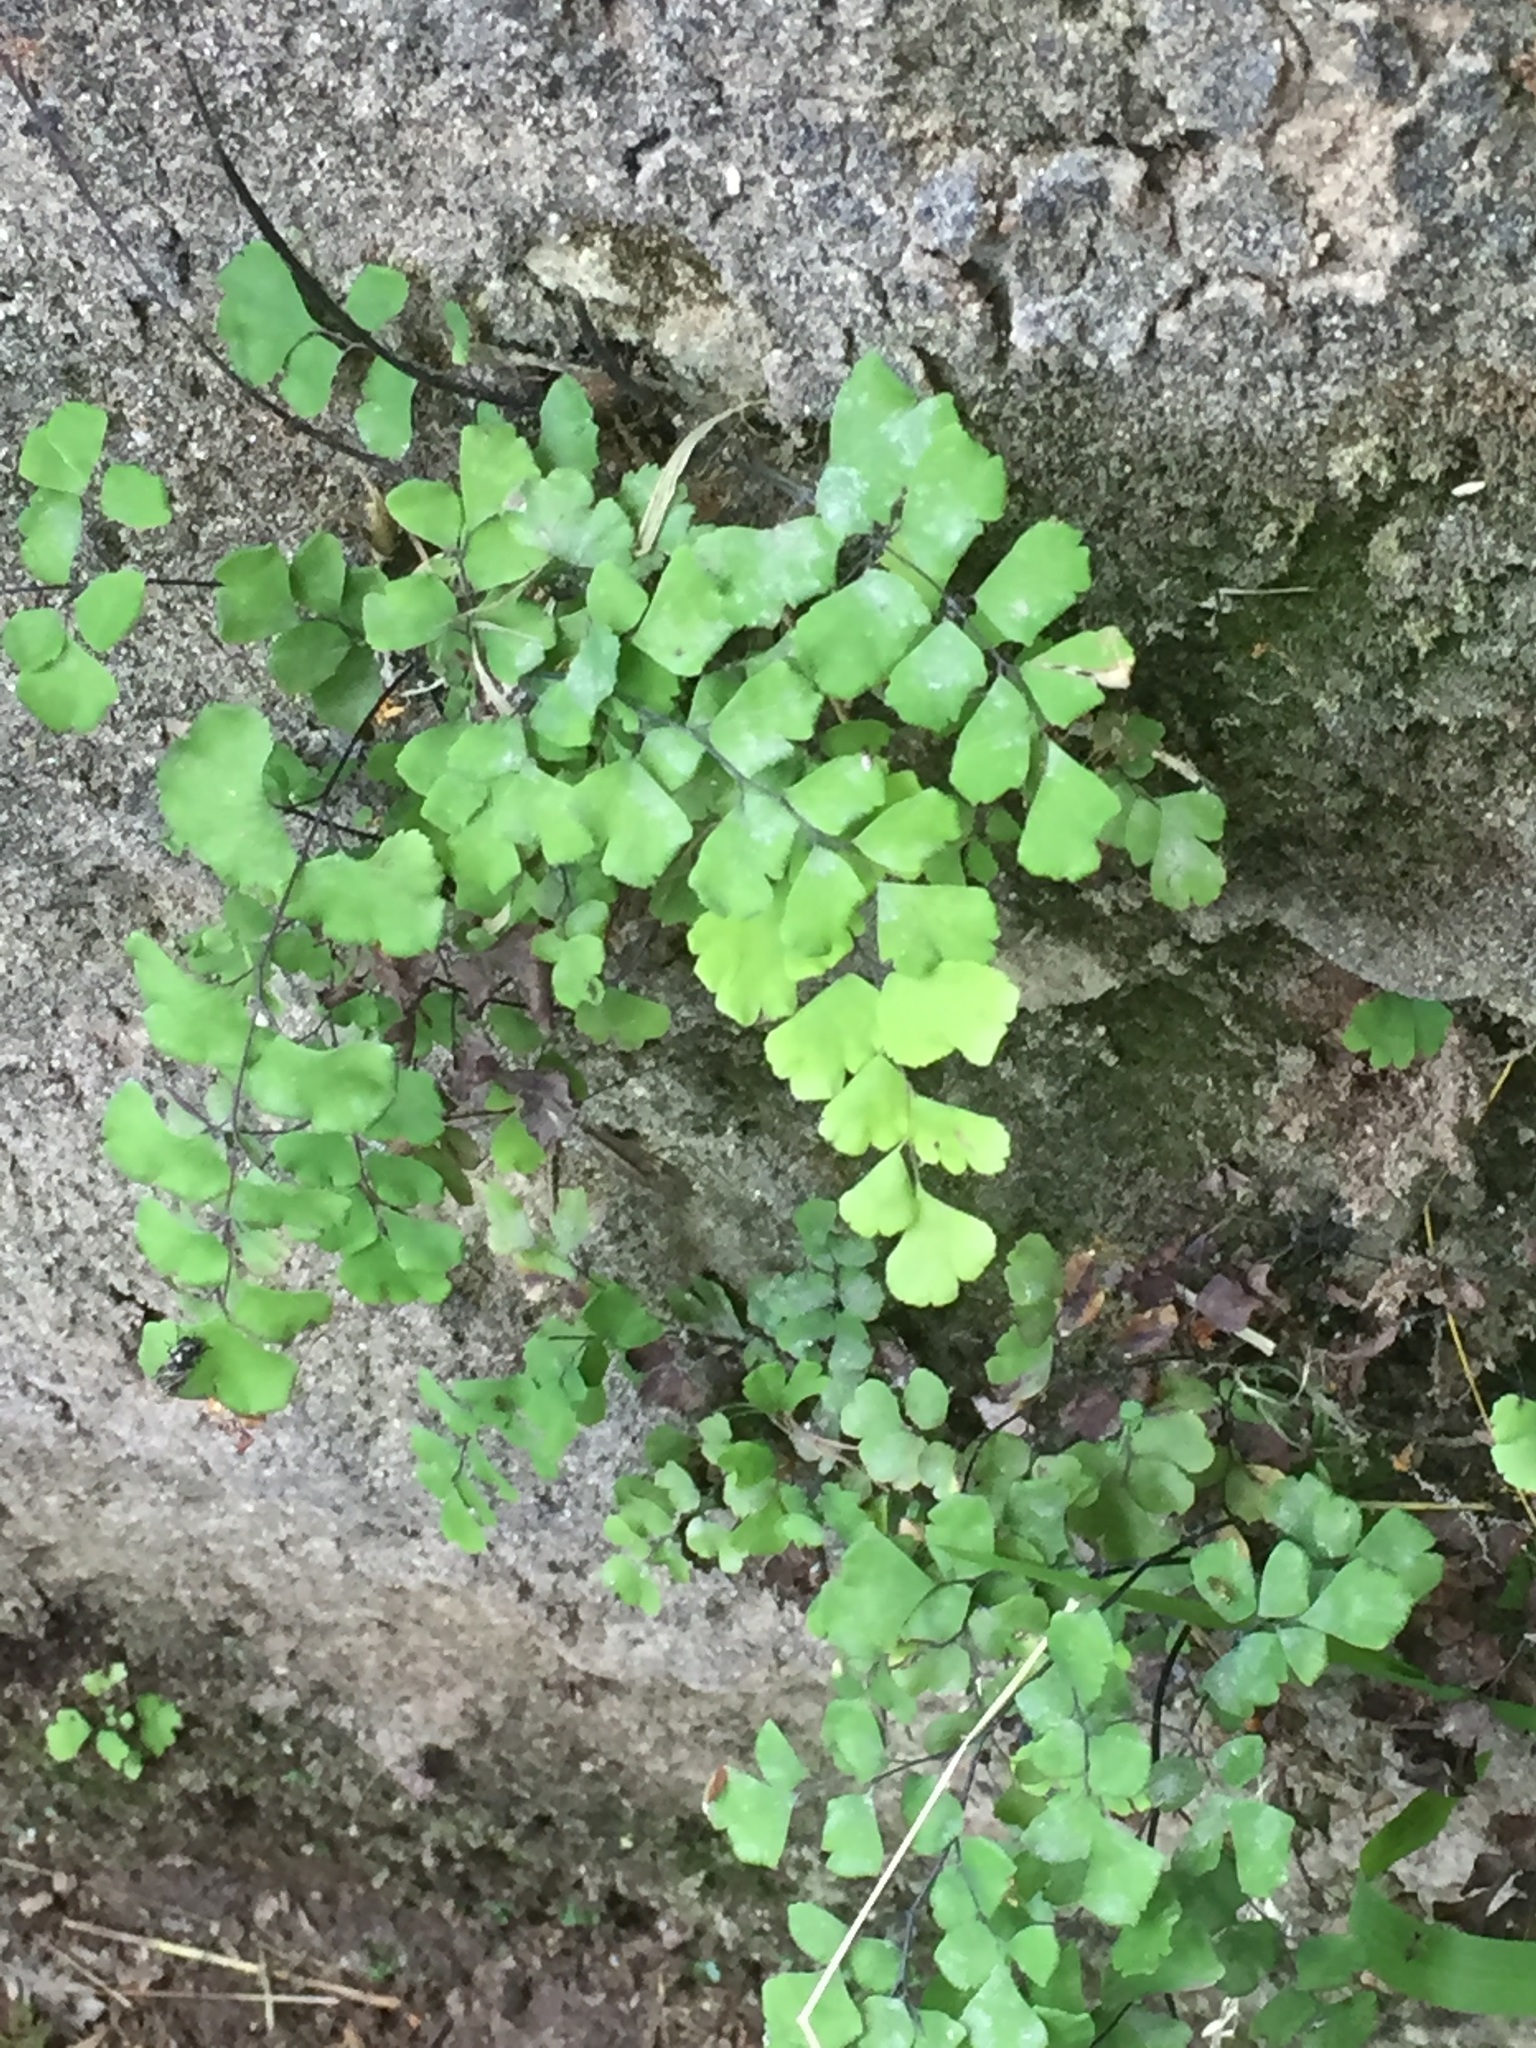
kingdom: Plantae
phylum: Tracheophyta
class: Polypodiopsida
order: Polypodiales
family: Pteridaceae
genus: Adiantum
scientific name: Adiantum capillus-veneris
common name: Maidenhair fern
